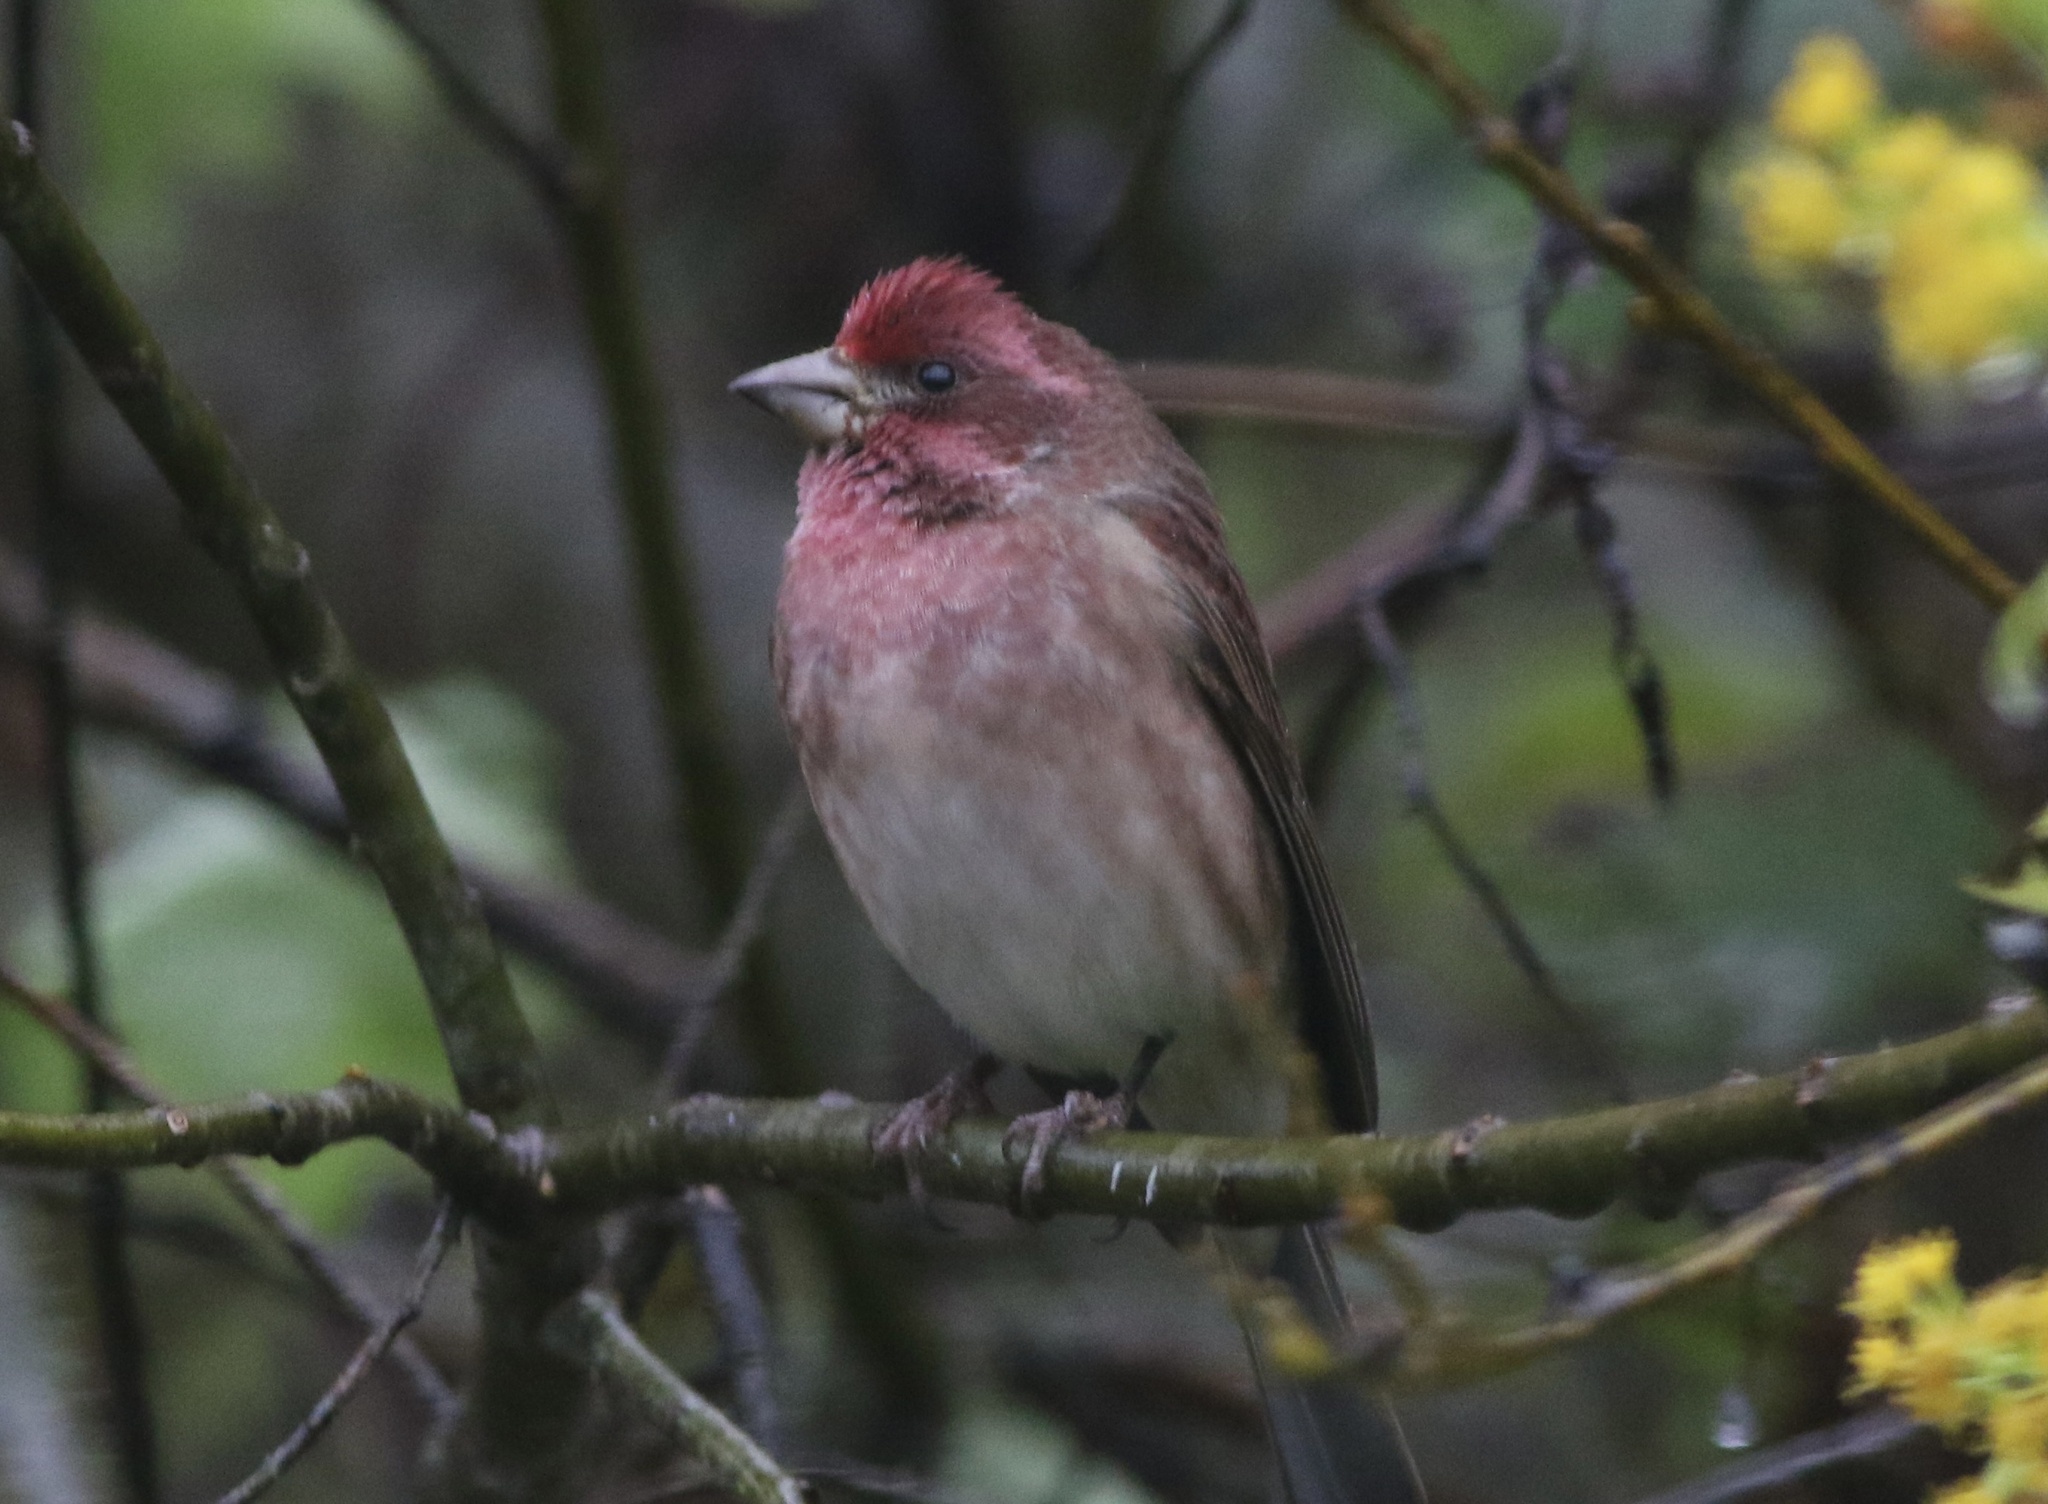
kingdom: Animalia
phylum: Chordata
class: Aves
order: Passeriformes
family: Fringillidae
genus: Haemorhous
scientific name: Haemorhous purpureus
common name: Purple finch
